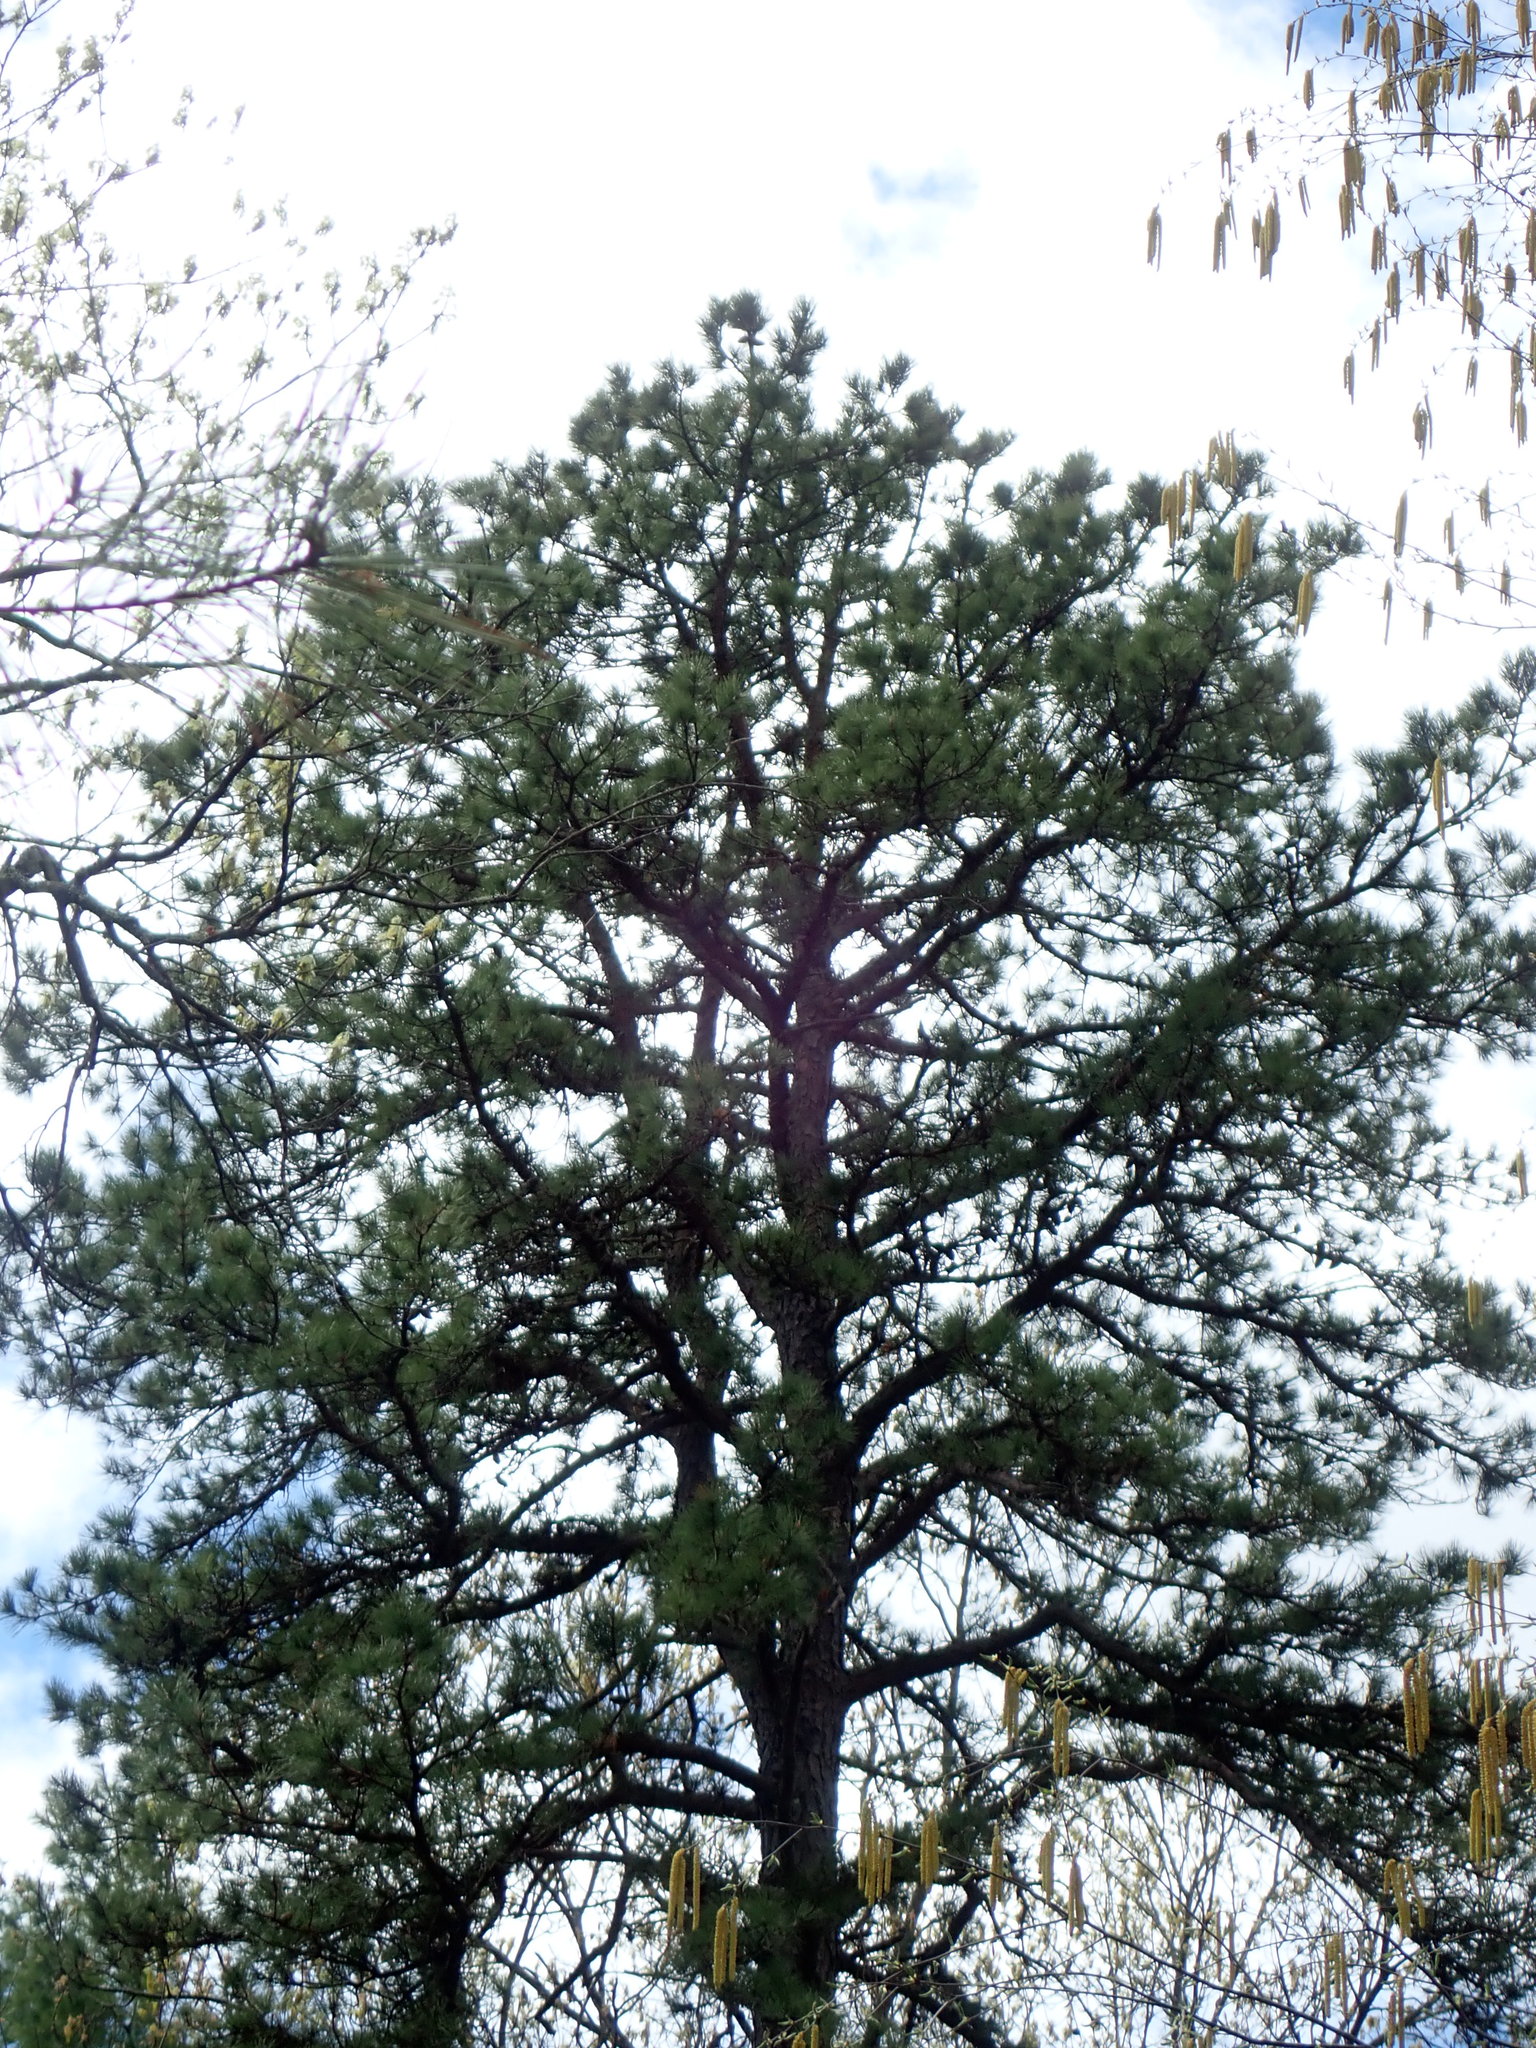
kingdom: Plantae
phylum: Tracheophyta
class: Pinopsida
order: Pinales
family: Pinaceae
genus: Pinus
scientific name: Pinus rigida
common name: Pitch pine
